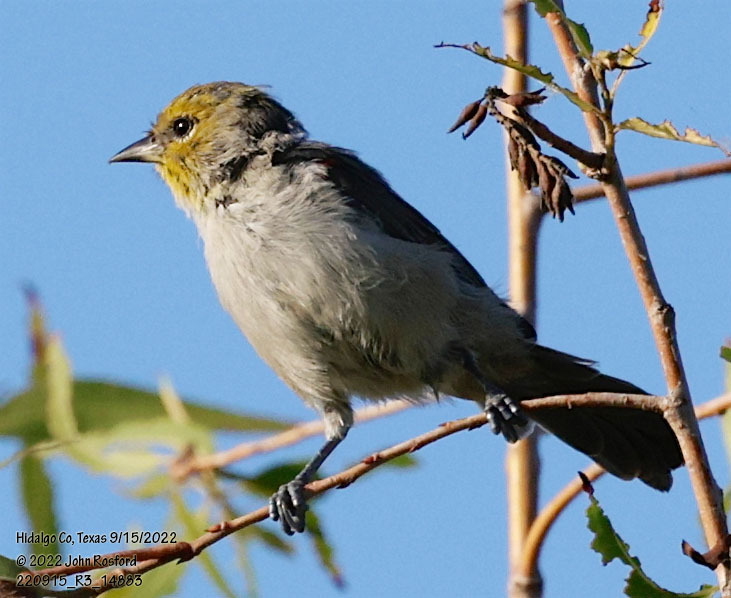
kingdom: Animalia
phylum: Chordata
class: Aves
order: Passeriformes
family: Remizidae
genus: Auriparus
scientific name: Auriparus flaviceps
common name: Verdin
